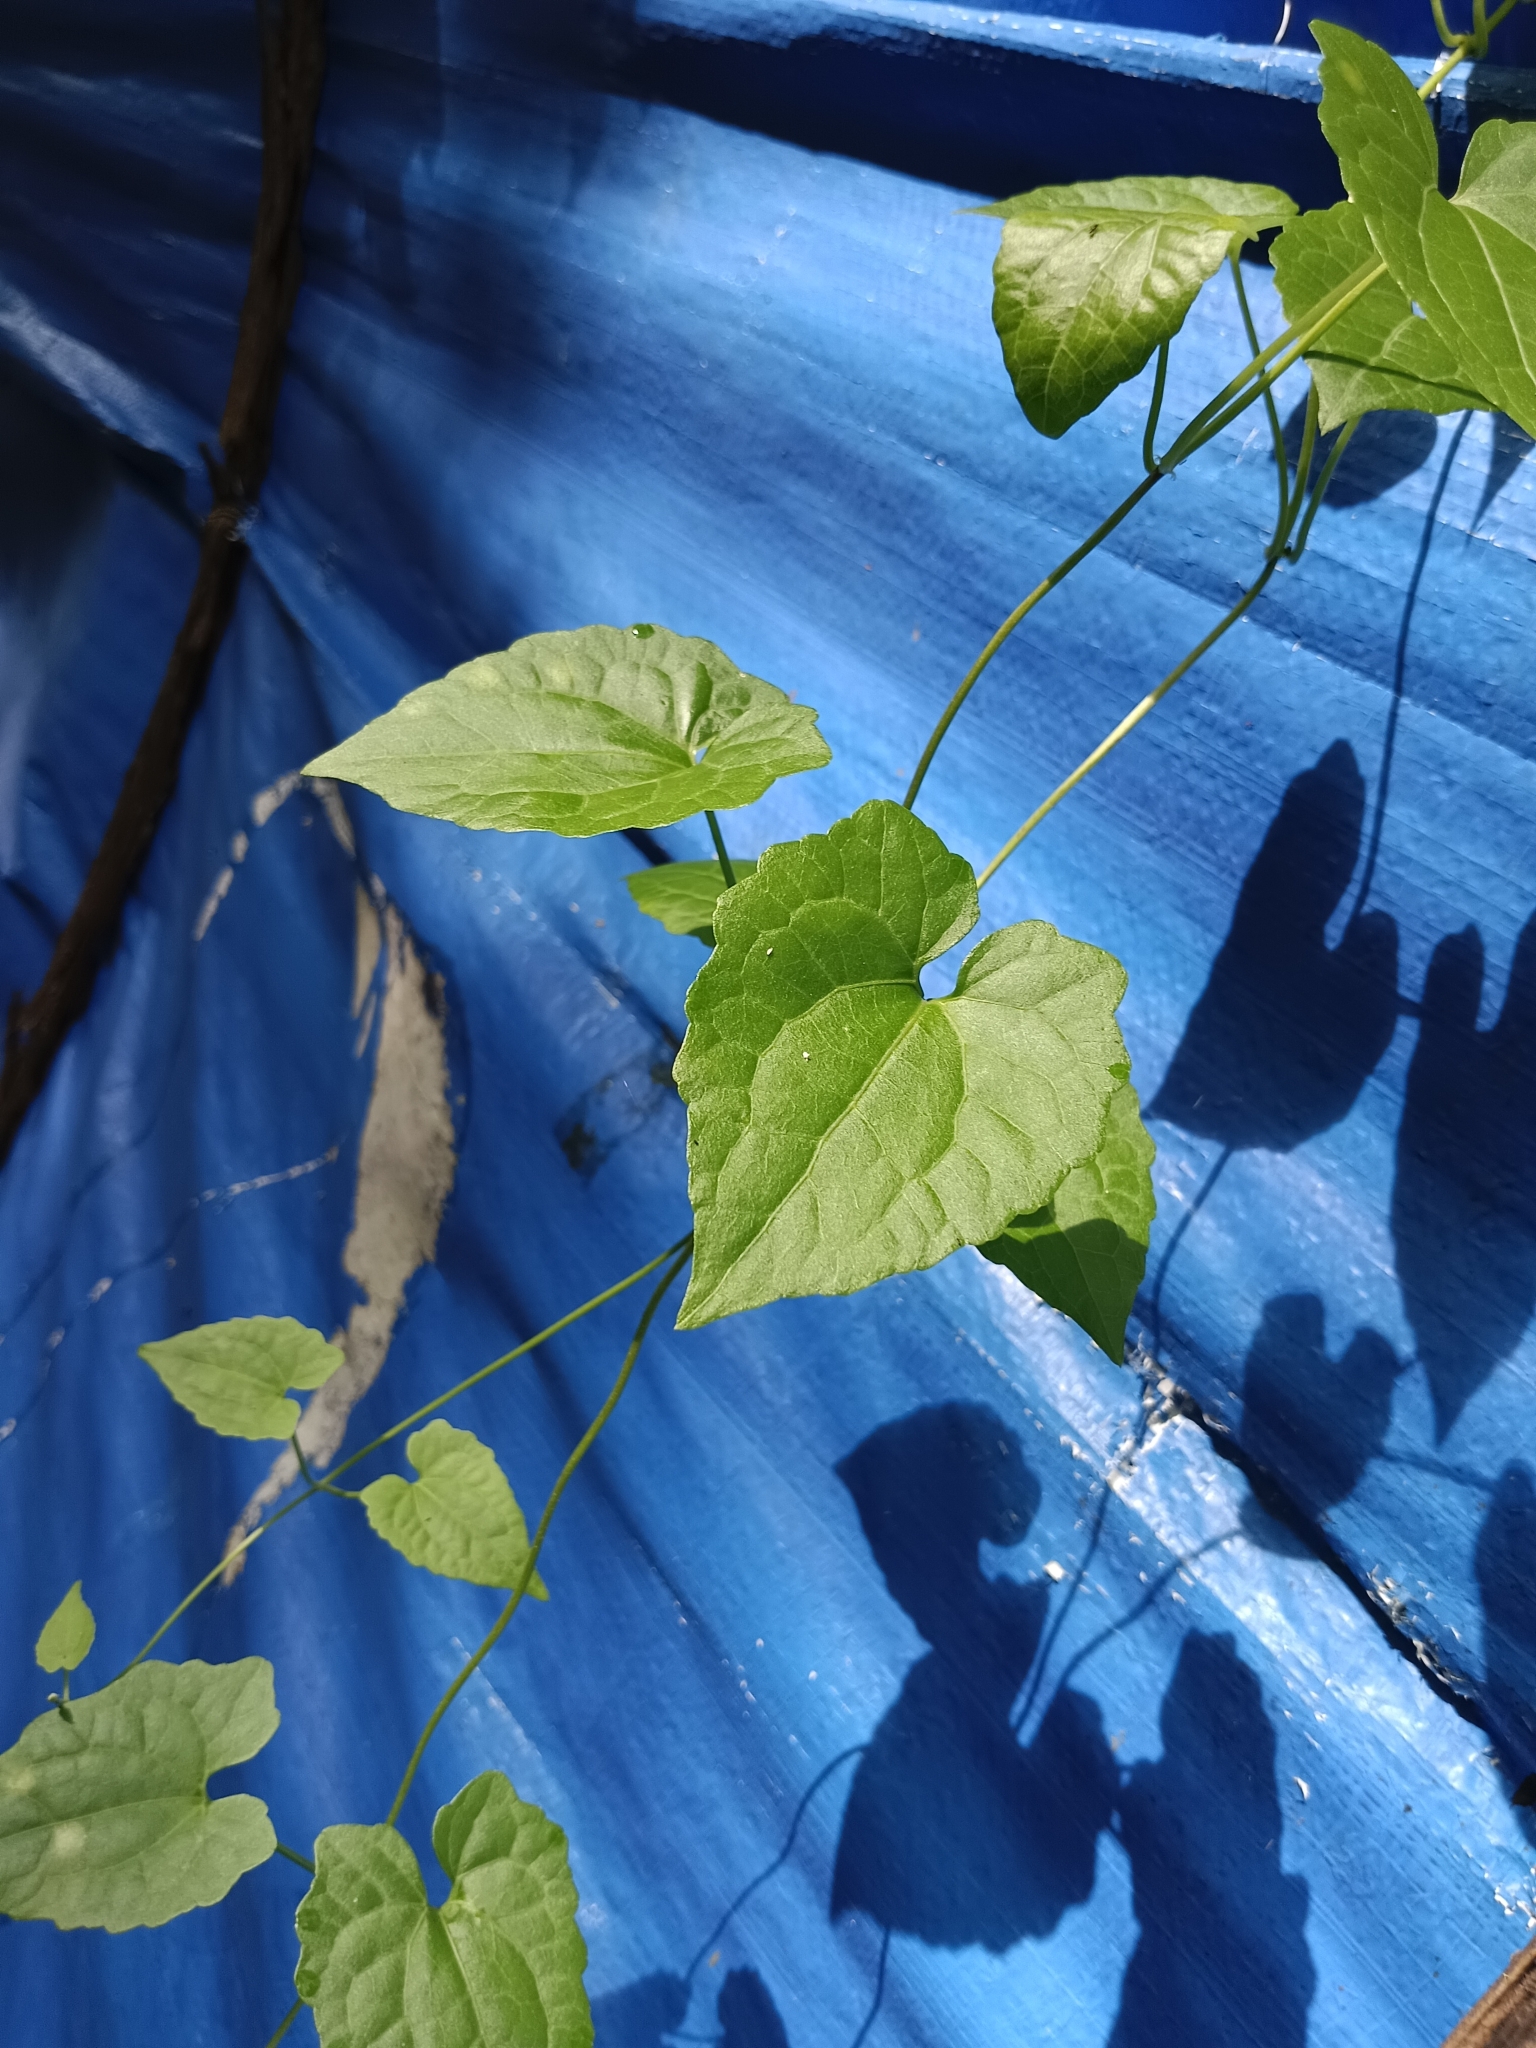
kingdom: Plantae
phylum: Tracheophyta
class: Magnoliopsida
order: Asterales
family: Asteraceae
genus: Mikania
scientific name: Mikania micrantha
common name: Mile-a-minute
